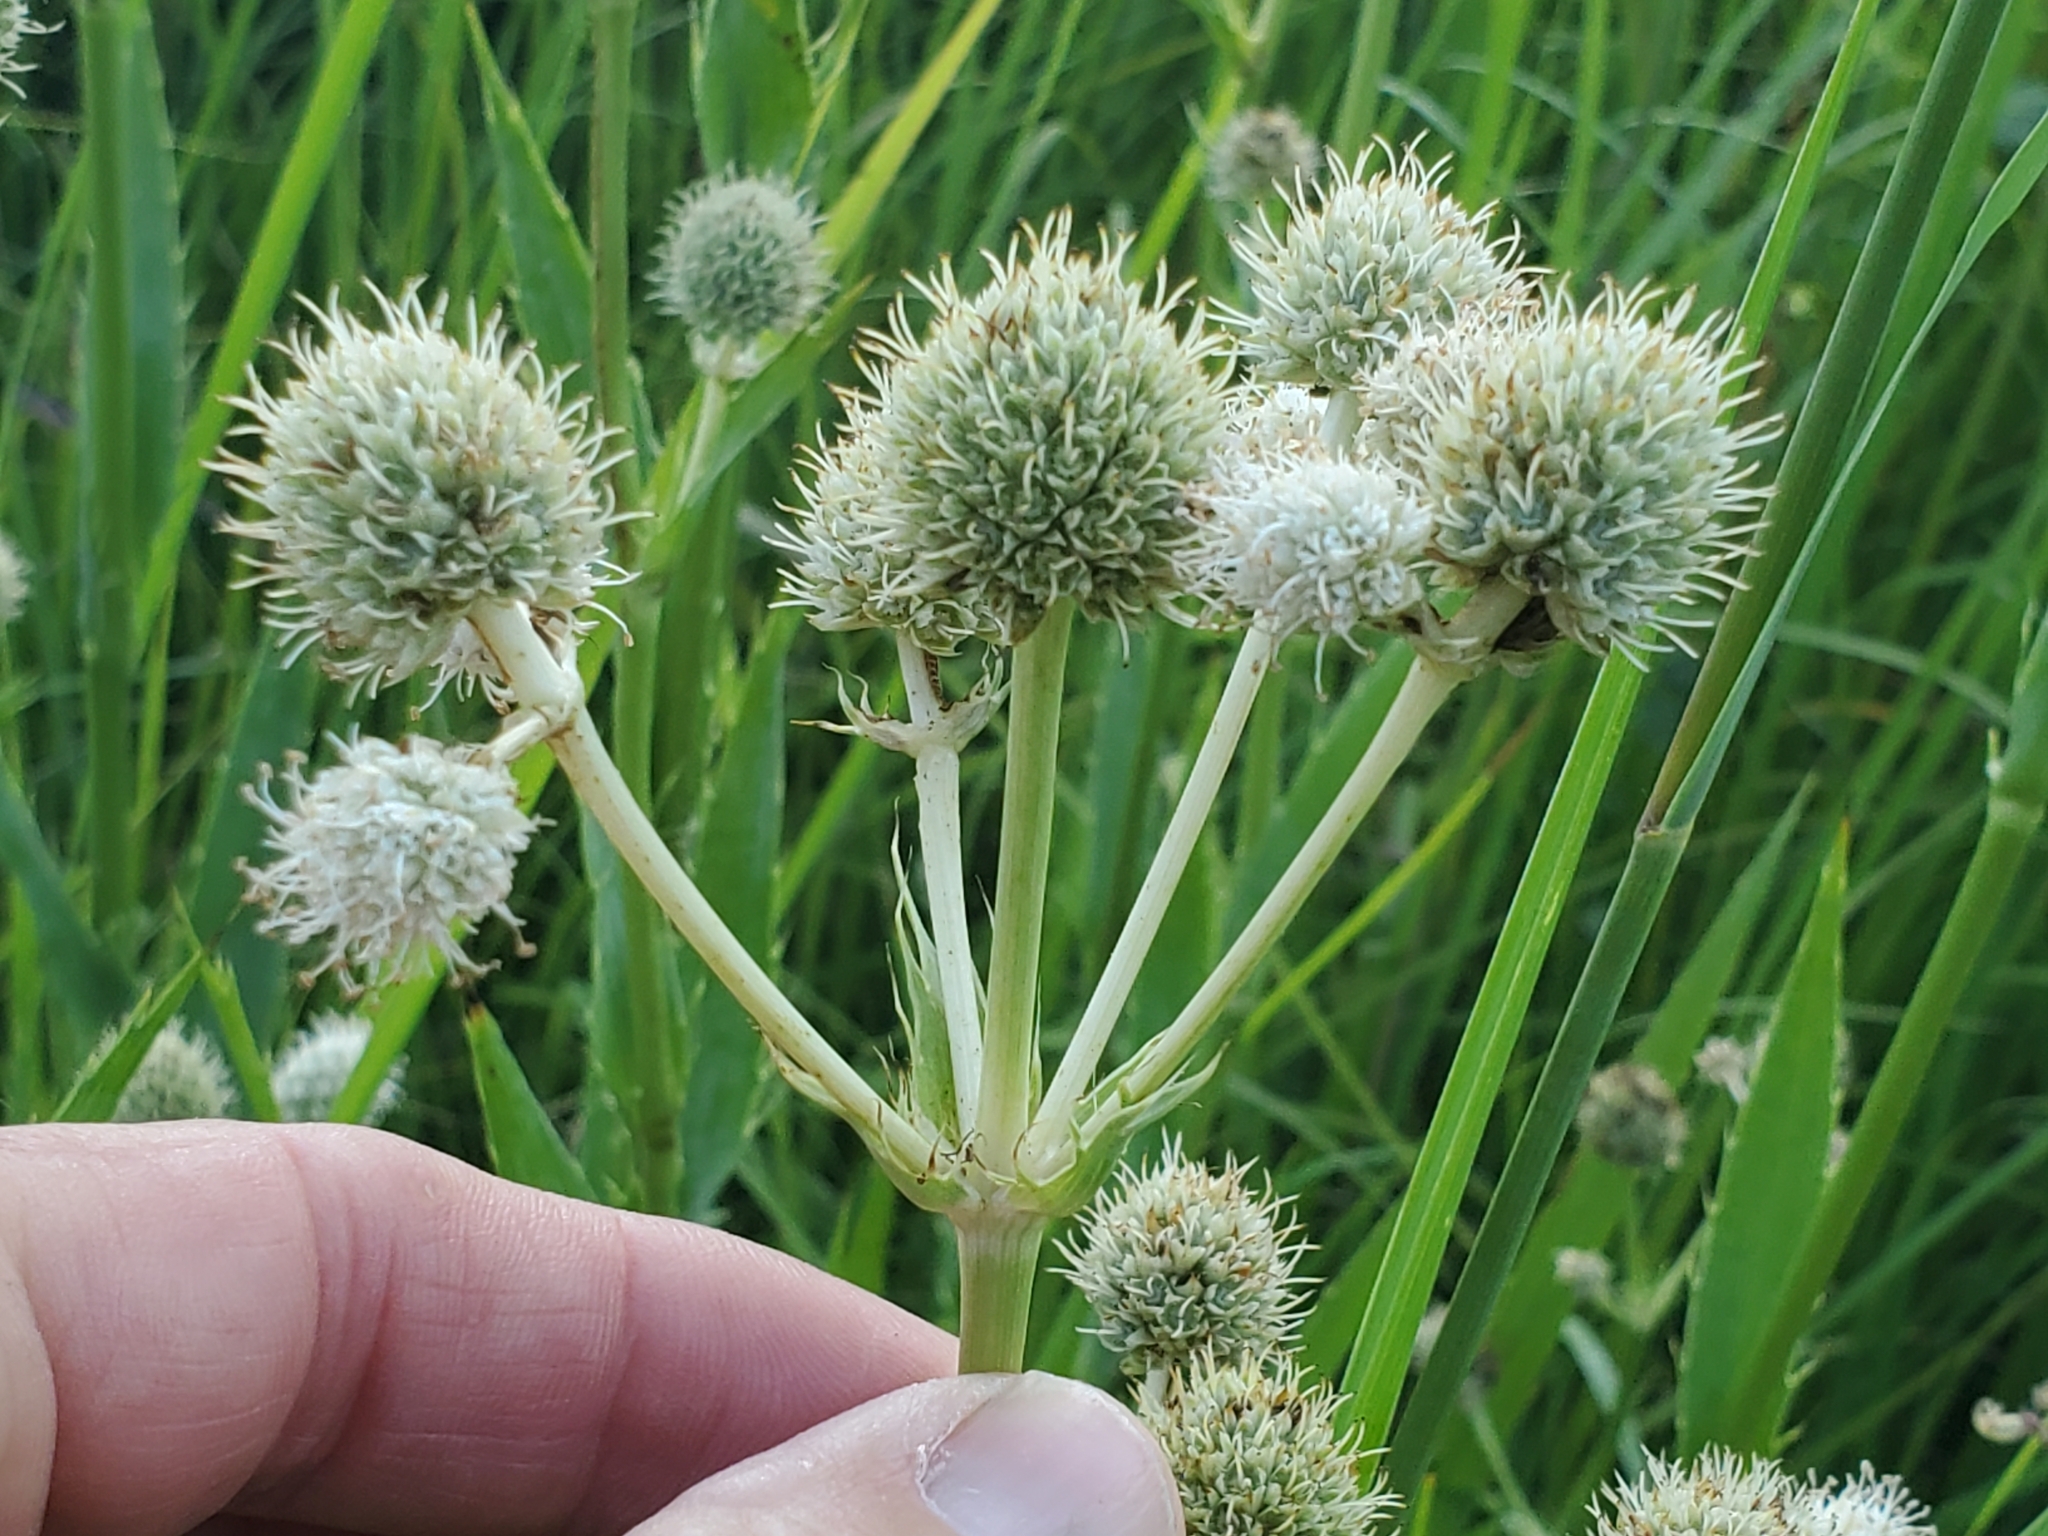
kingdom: Plantae
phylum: Tracheophyta
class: Magnoliopsida
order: Apiales
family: Apiaceae
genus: Eryngium
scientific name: Eryngium yuccifolium
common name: Button eryngo
